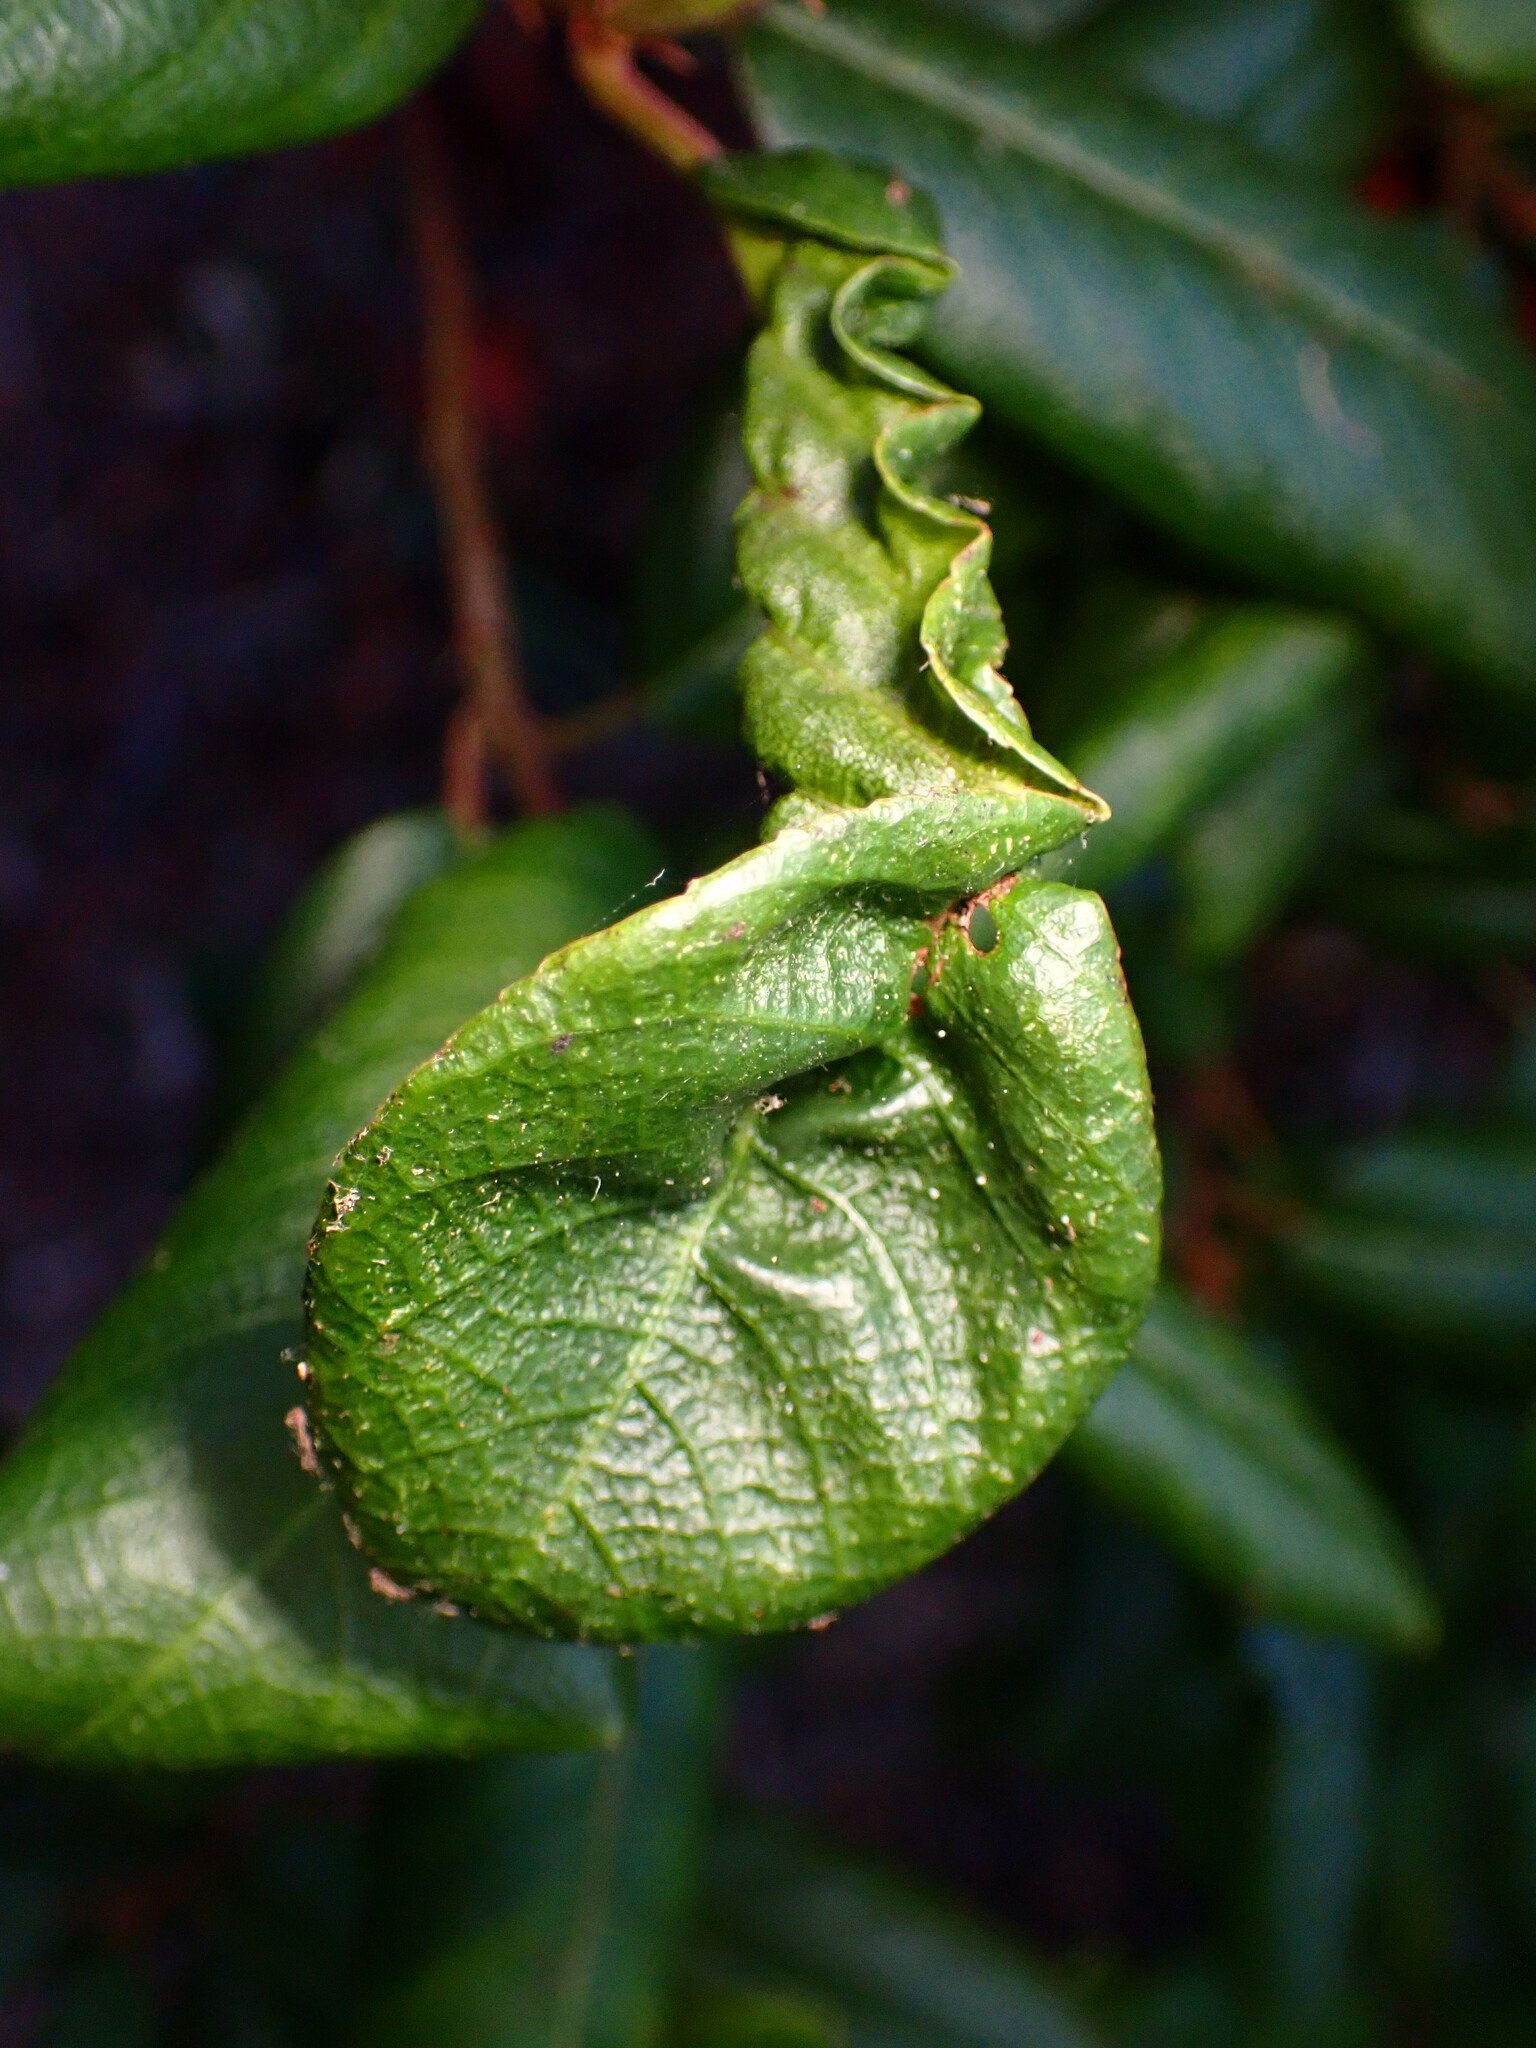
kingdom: Animalia
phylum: Arthropoda
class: Insecta
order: Lepidoptera
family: Cosmopterigidae
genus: Sorhagenia
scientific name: Sorhagenia nimbosus
